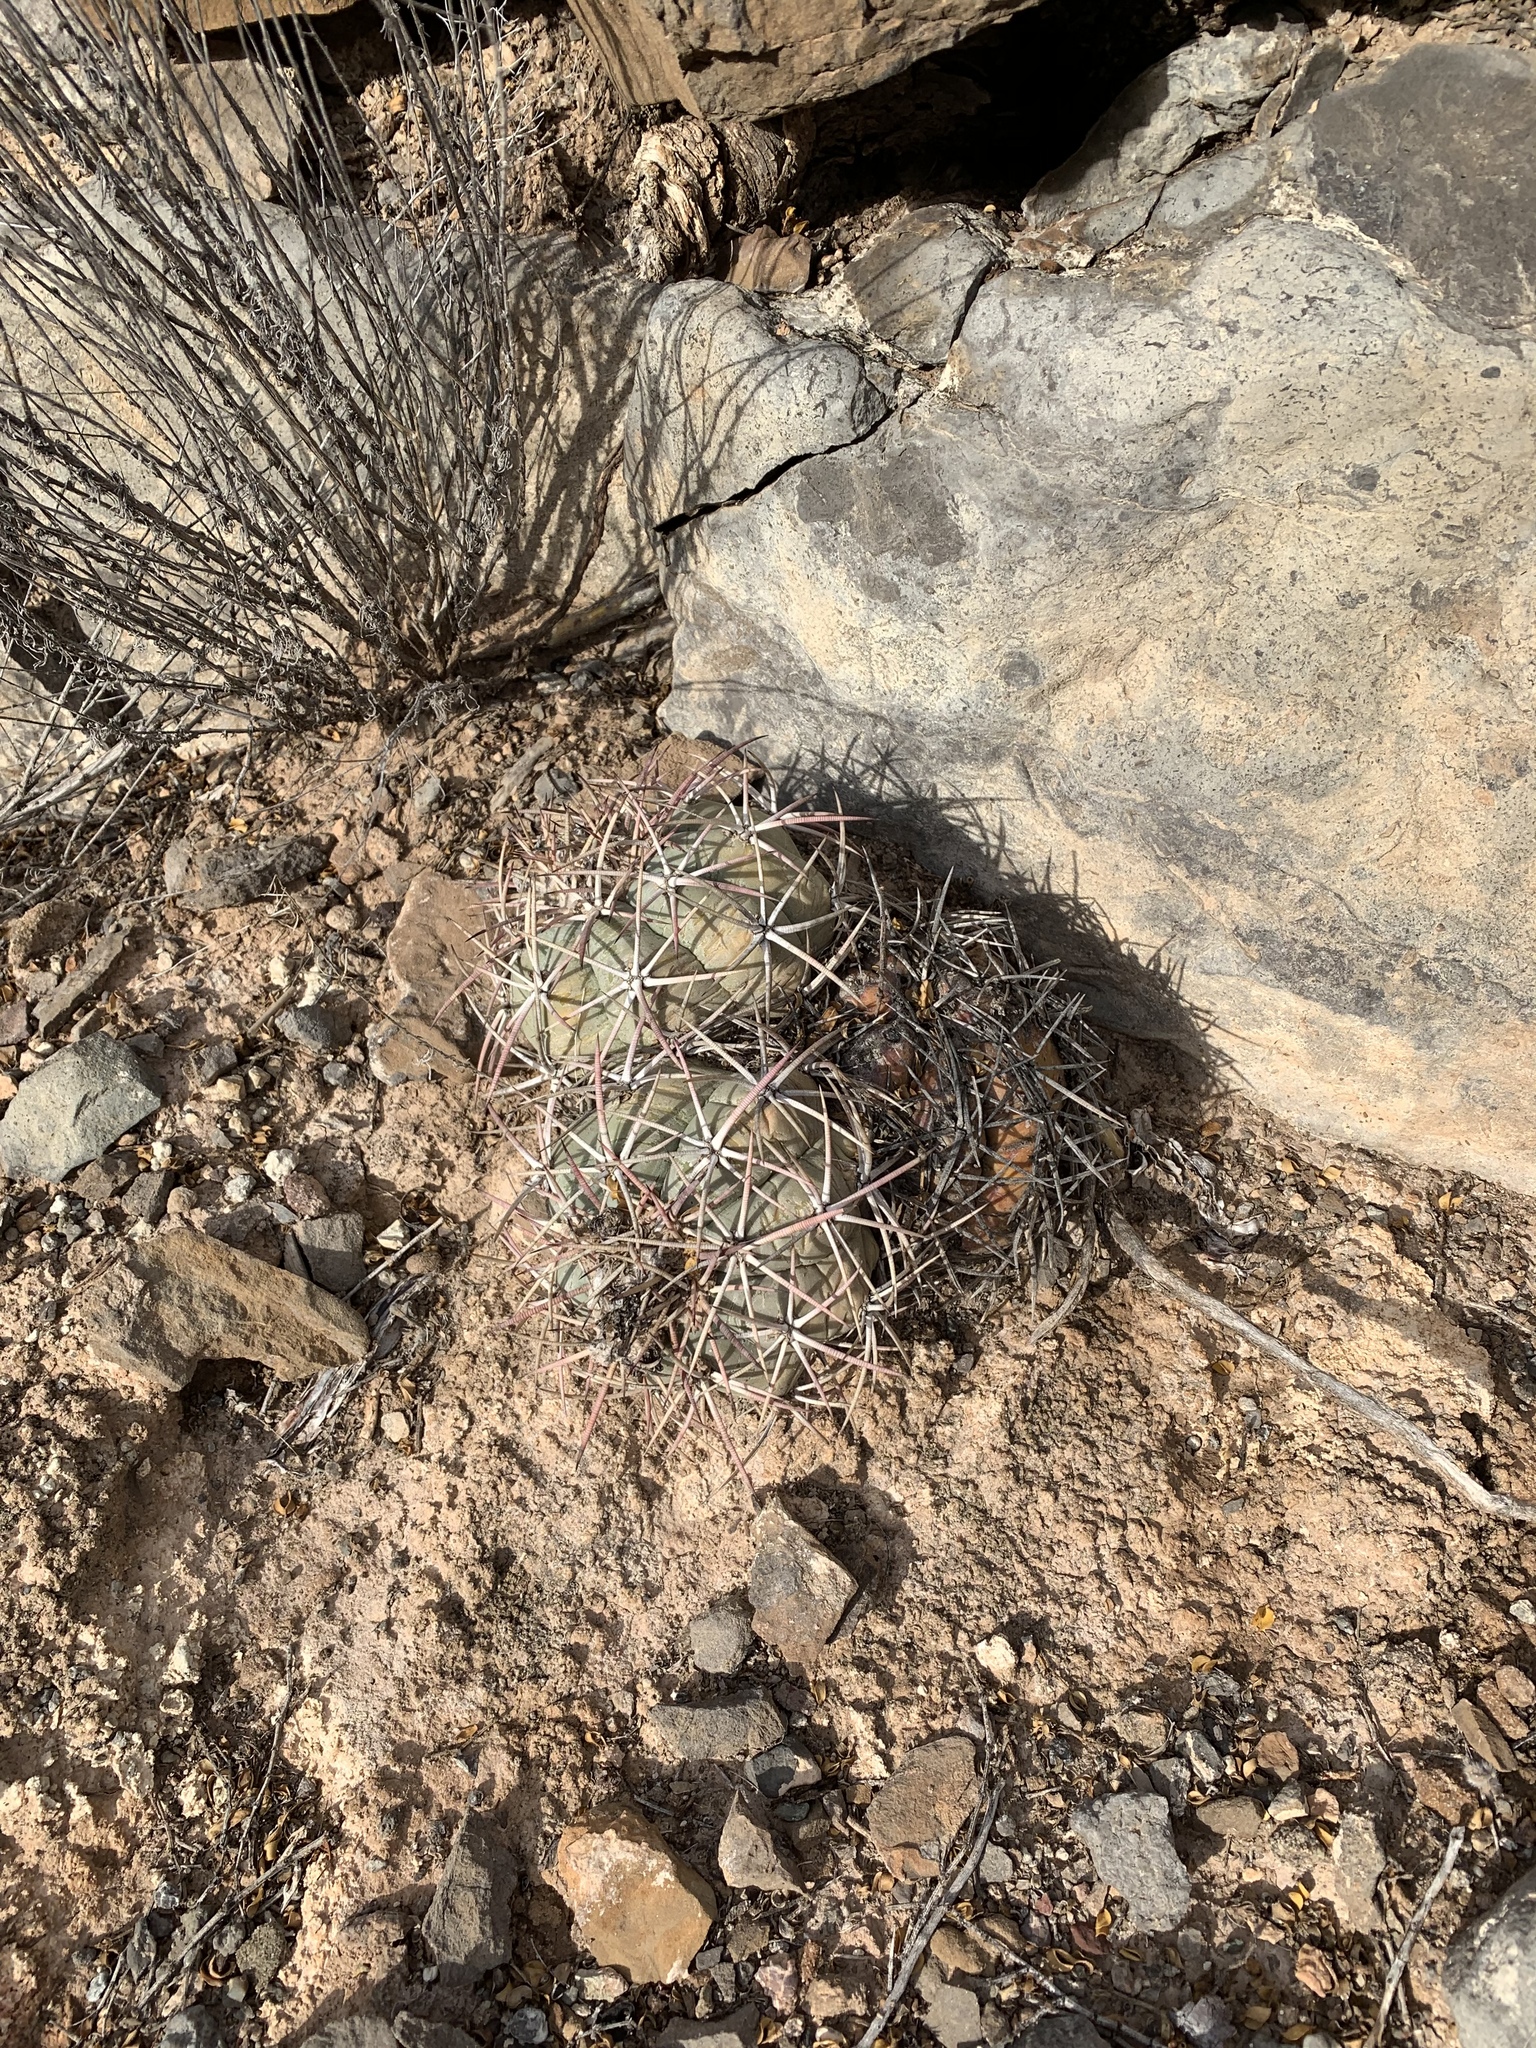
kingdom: Plantae
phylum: Tracheophyta
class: Magnoliopsida
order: Caryophyllales
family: Cactaceae
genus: Echinocactus
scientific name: Echinocactus horizonthalonius
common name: Devilshead
